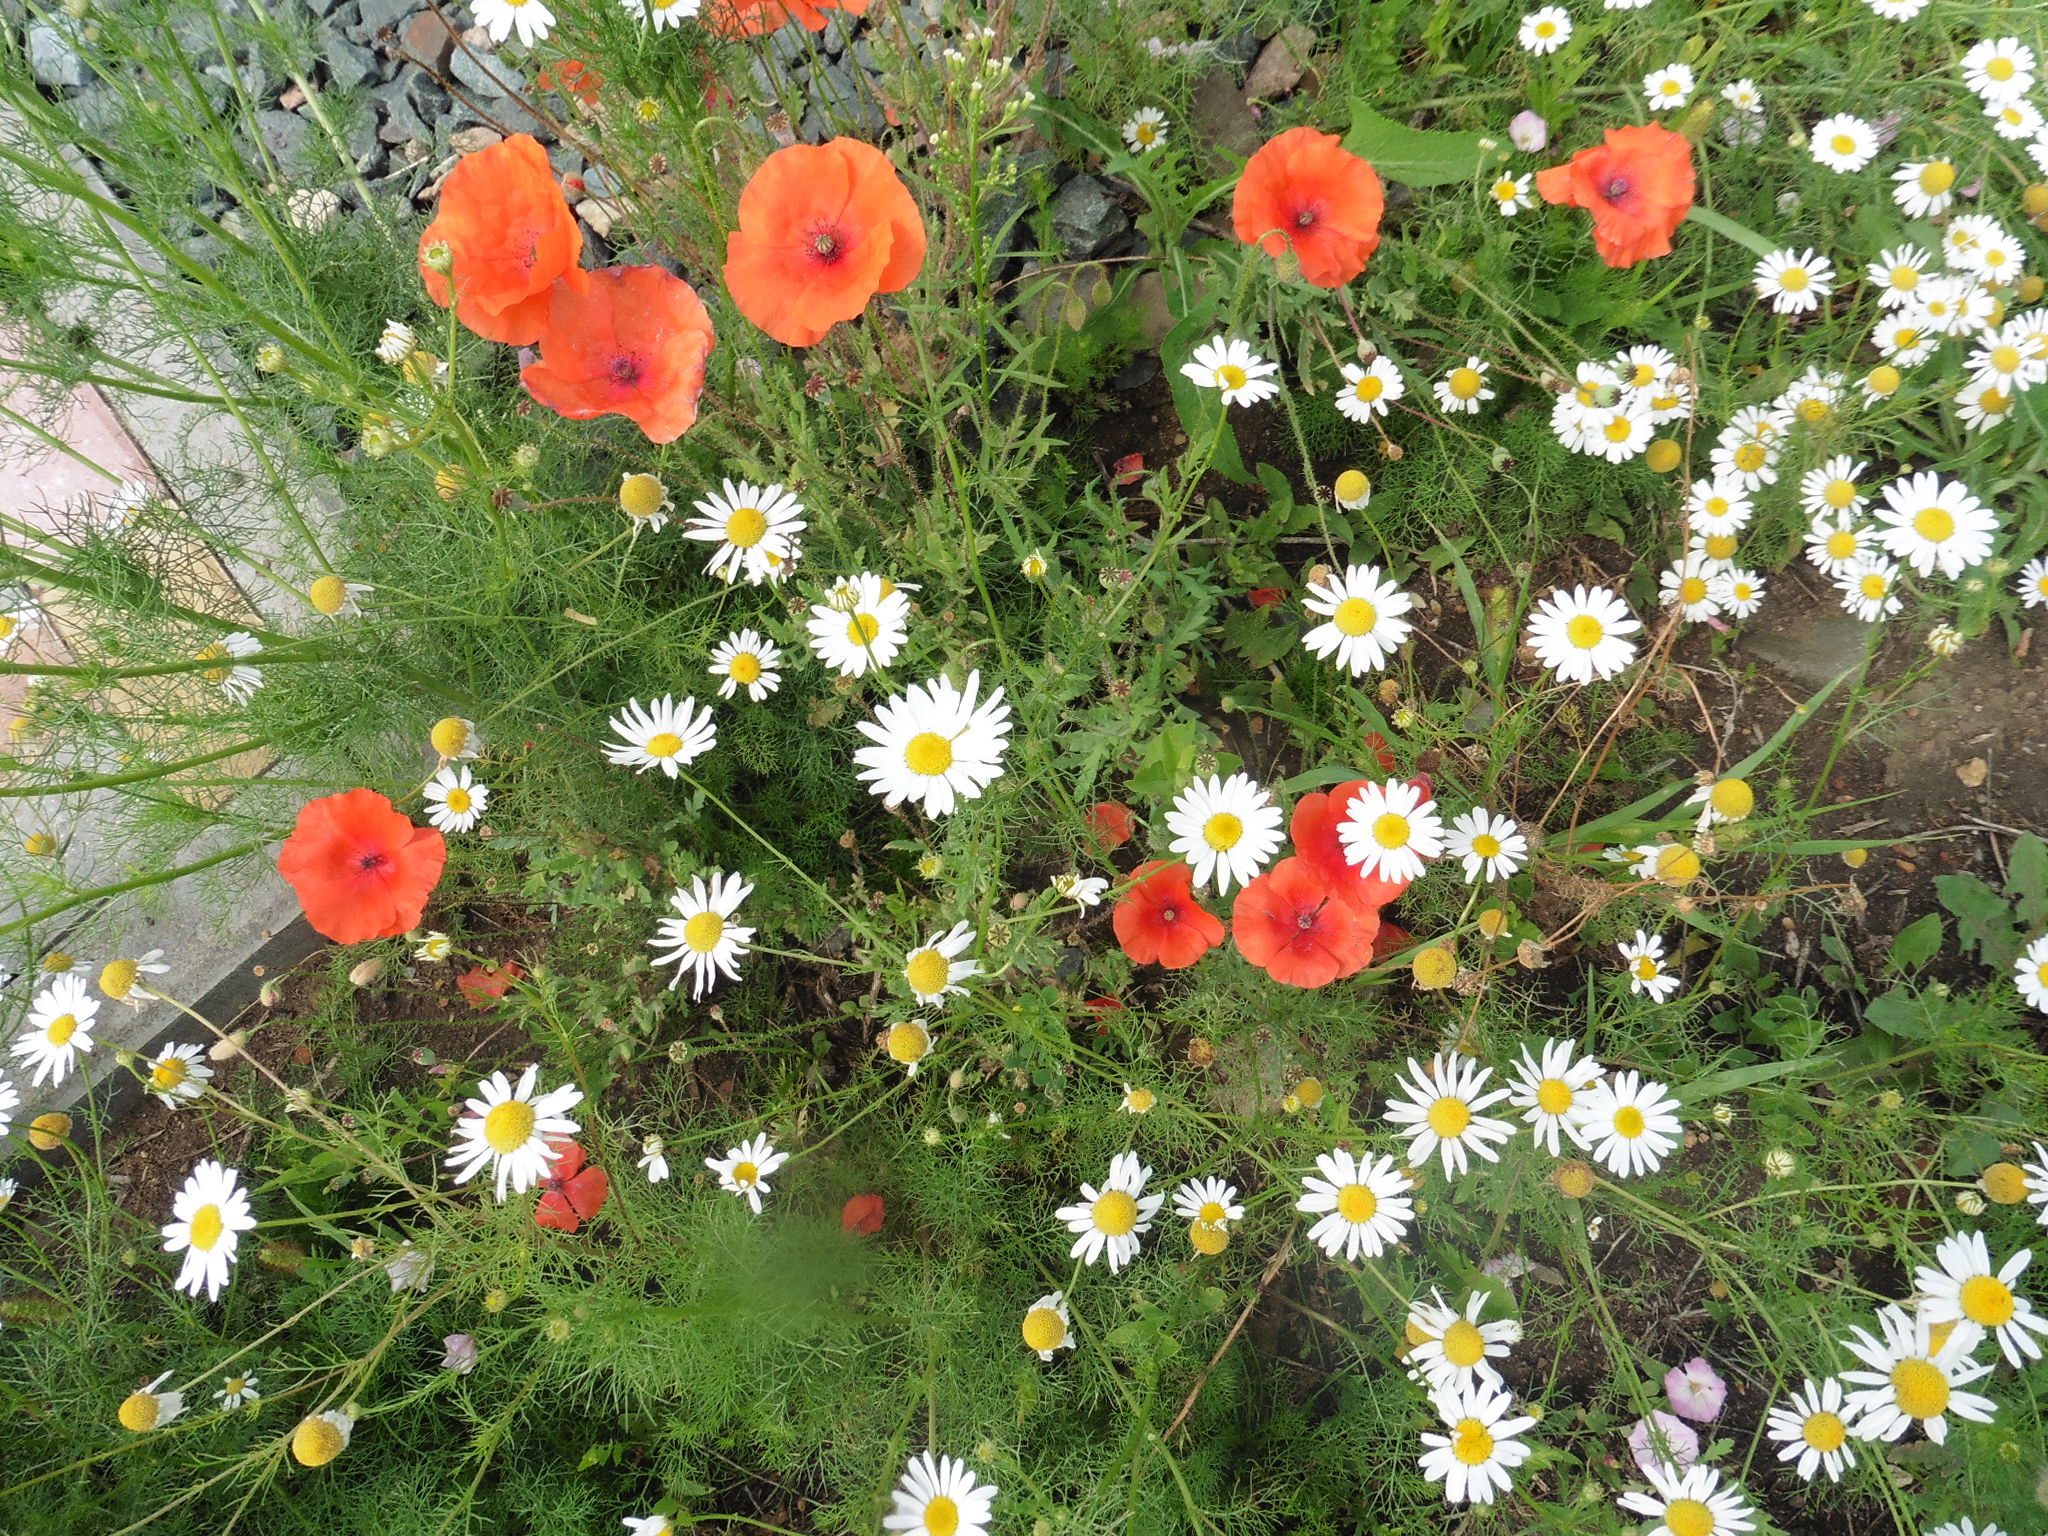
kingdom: Plantae
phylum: Tracheophyta
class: Magnoliopsida
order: Ranunculales
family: Papaveraceae
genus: Papaver
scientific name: Papaver rhoeas
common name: Corn poppy
